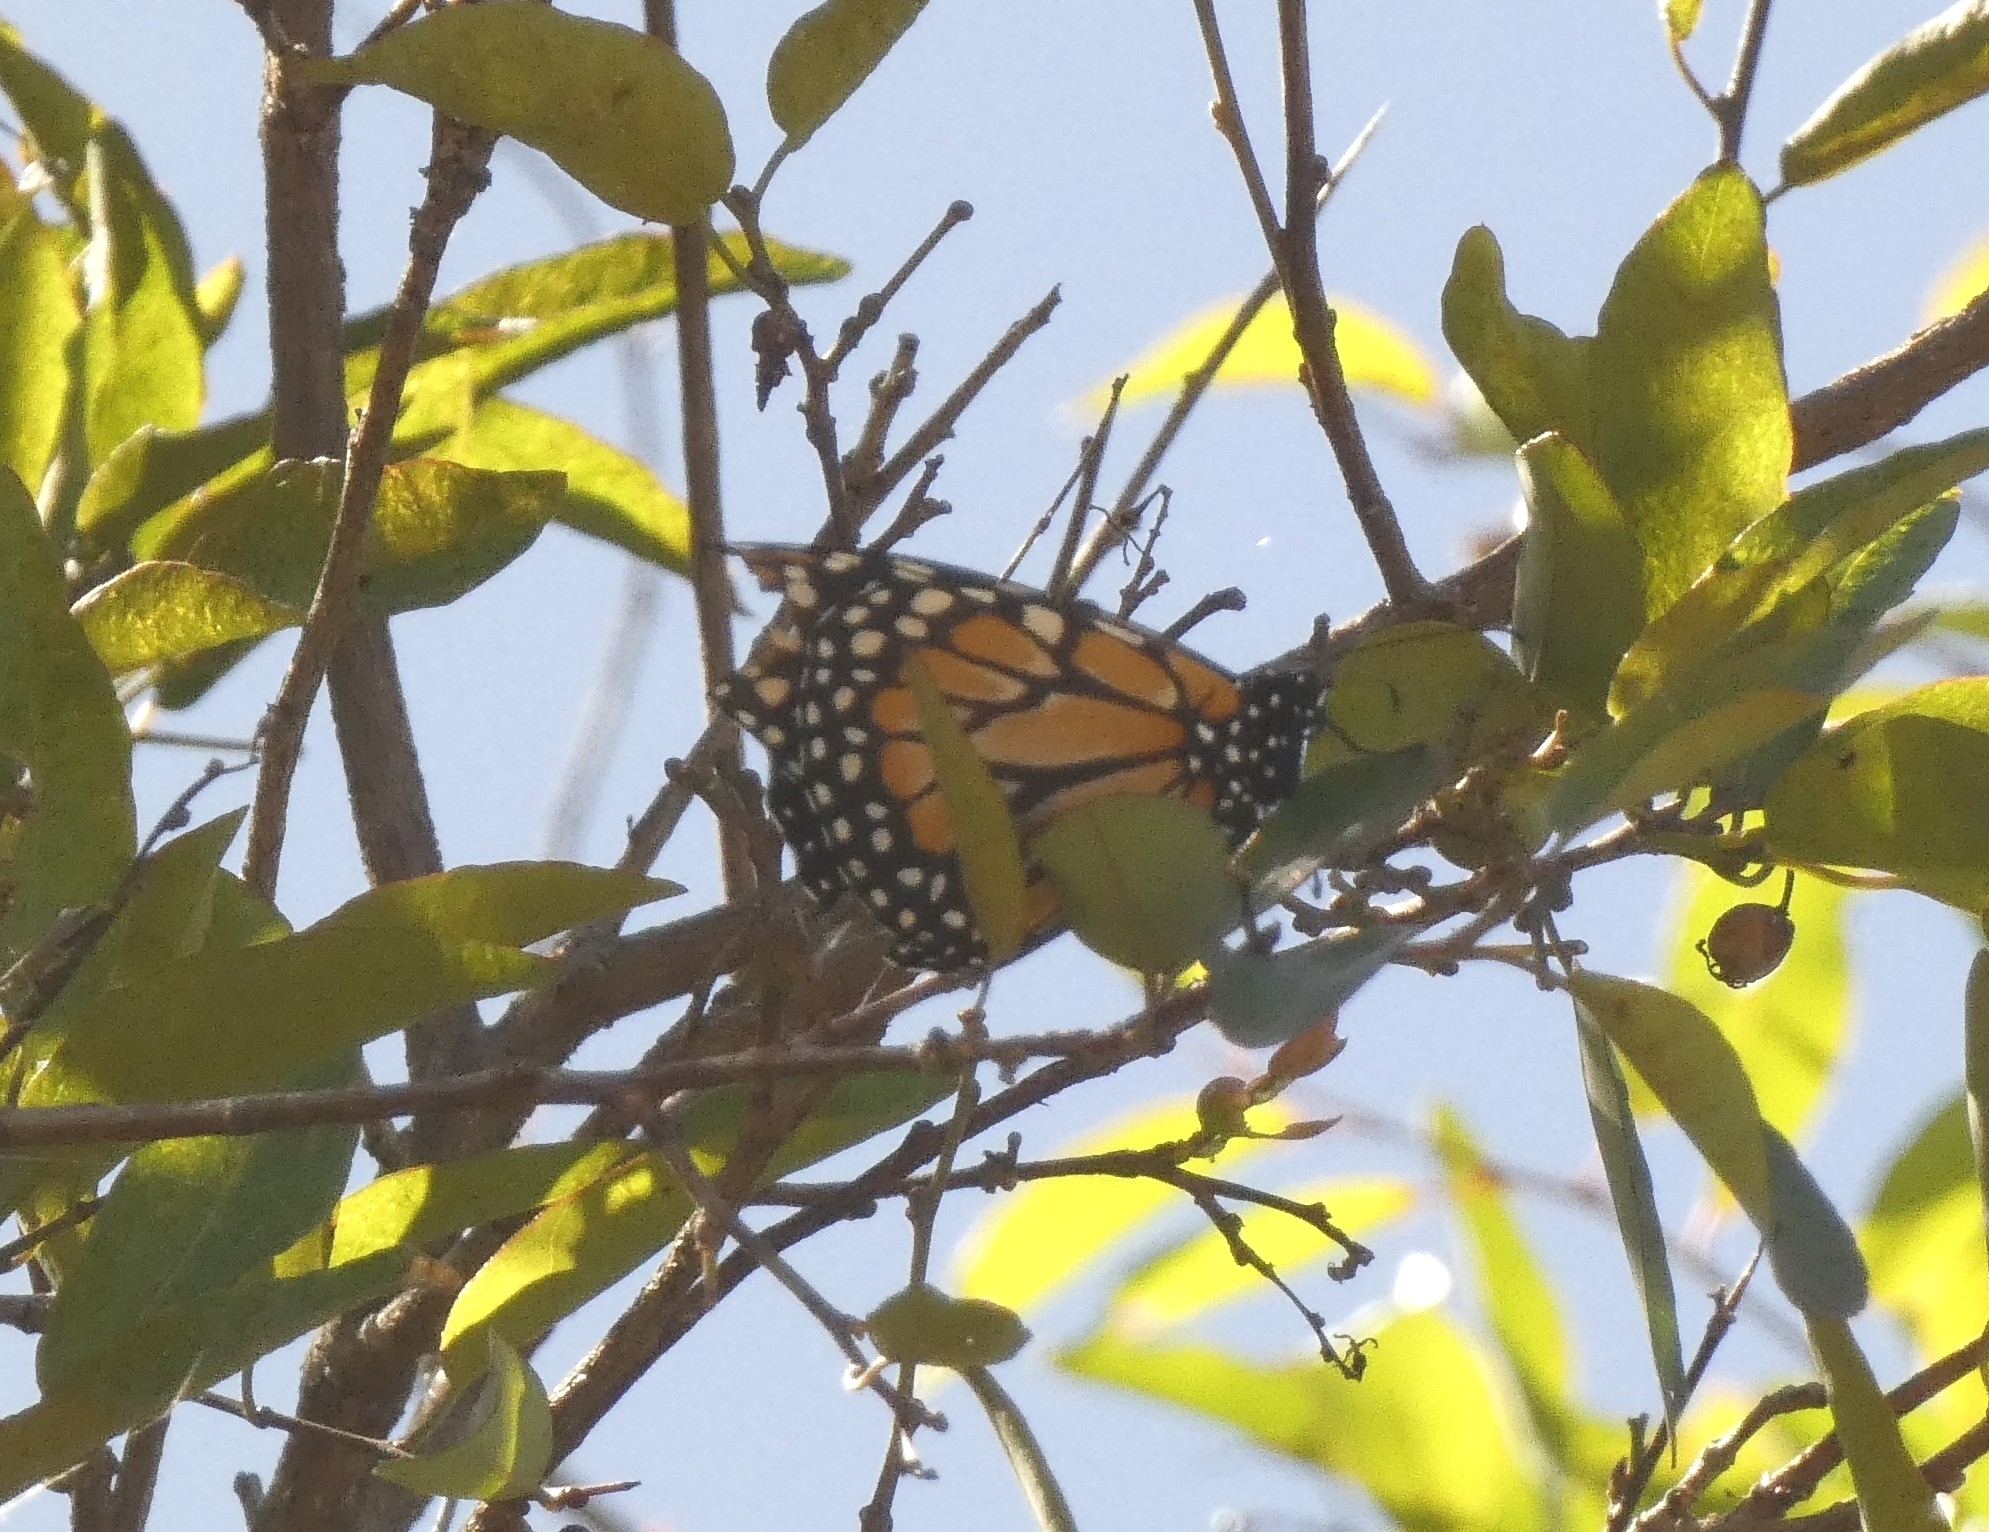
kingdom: Animalia
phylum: Arthropoda
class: Insecta
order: Lepidoptera
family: Nymphalidae
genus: Danaus
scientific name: Danaus erippus
